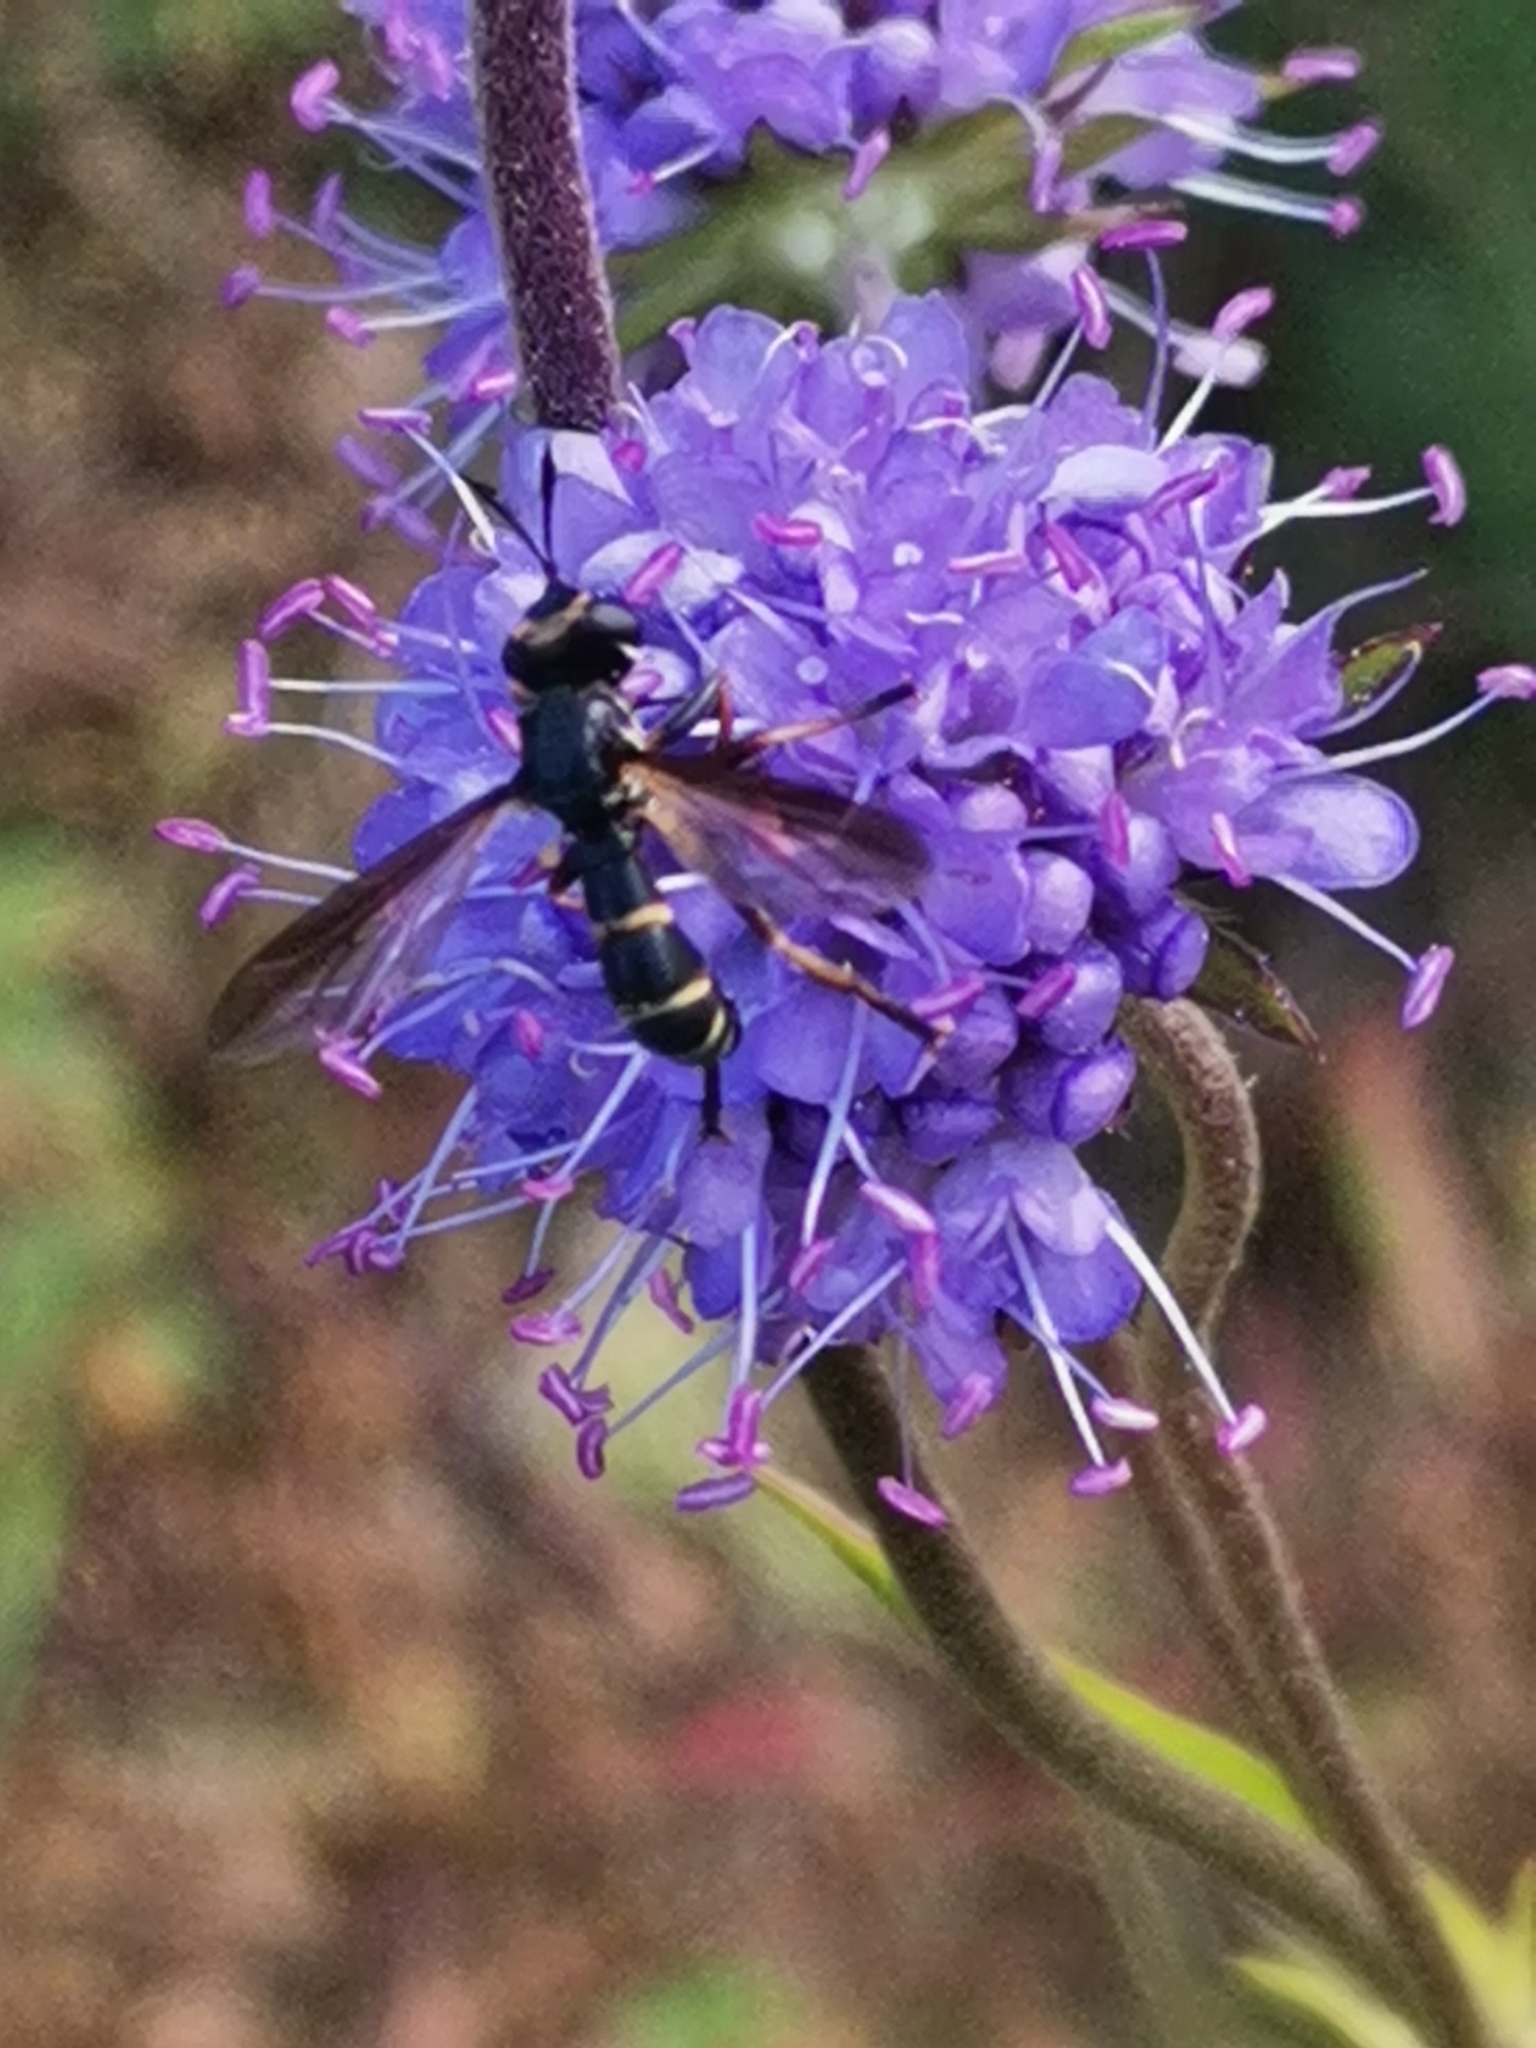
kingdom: Animalia
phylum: Arthropoda
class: Insecta
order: Diptera
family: Conopidae
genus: Conops
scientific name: Conops strigatus
